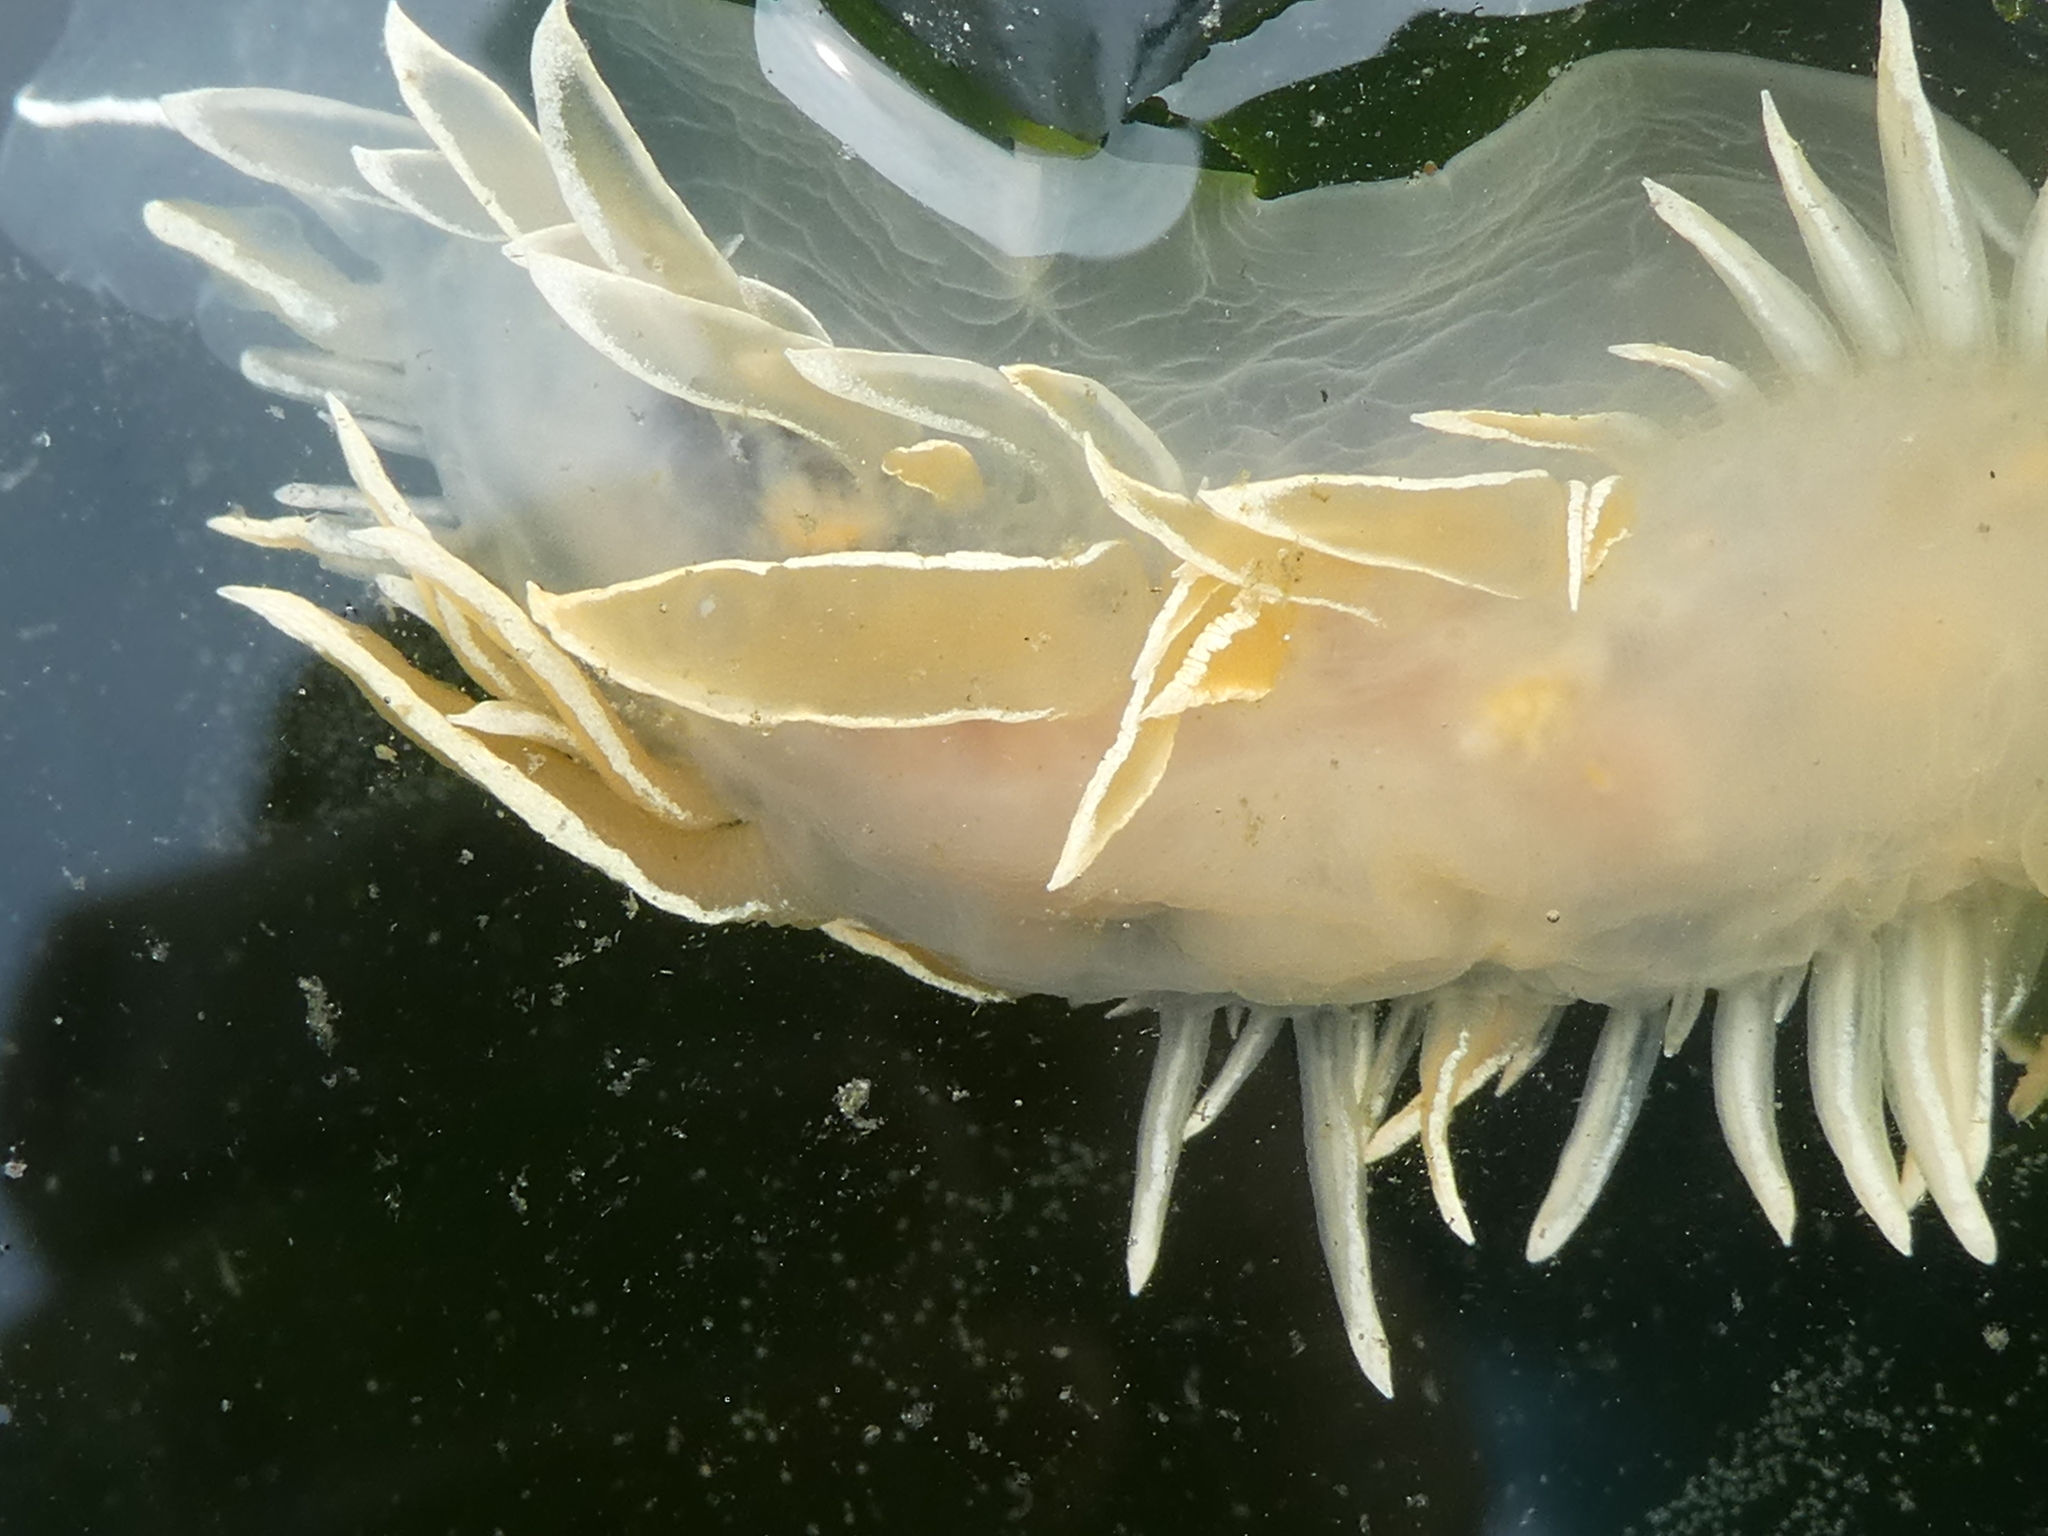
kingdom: Animalia
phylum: Mollusca
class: Gastropoda
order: Nudibranchia
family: Dironidae
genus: Dirona
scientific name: Dirona albolineata
